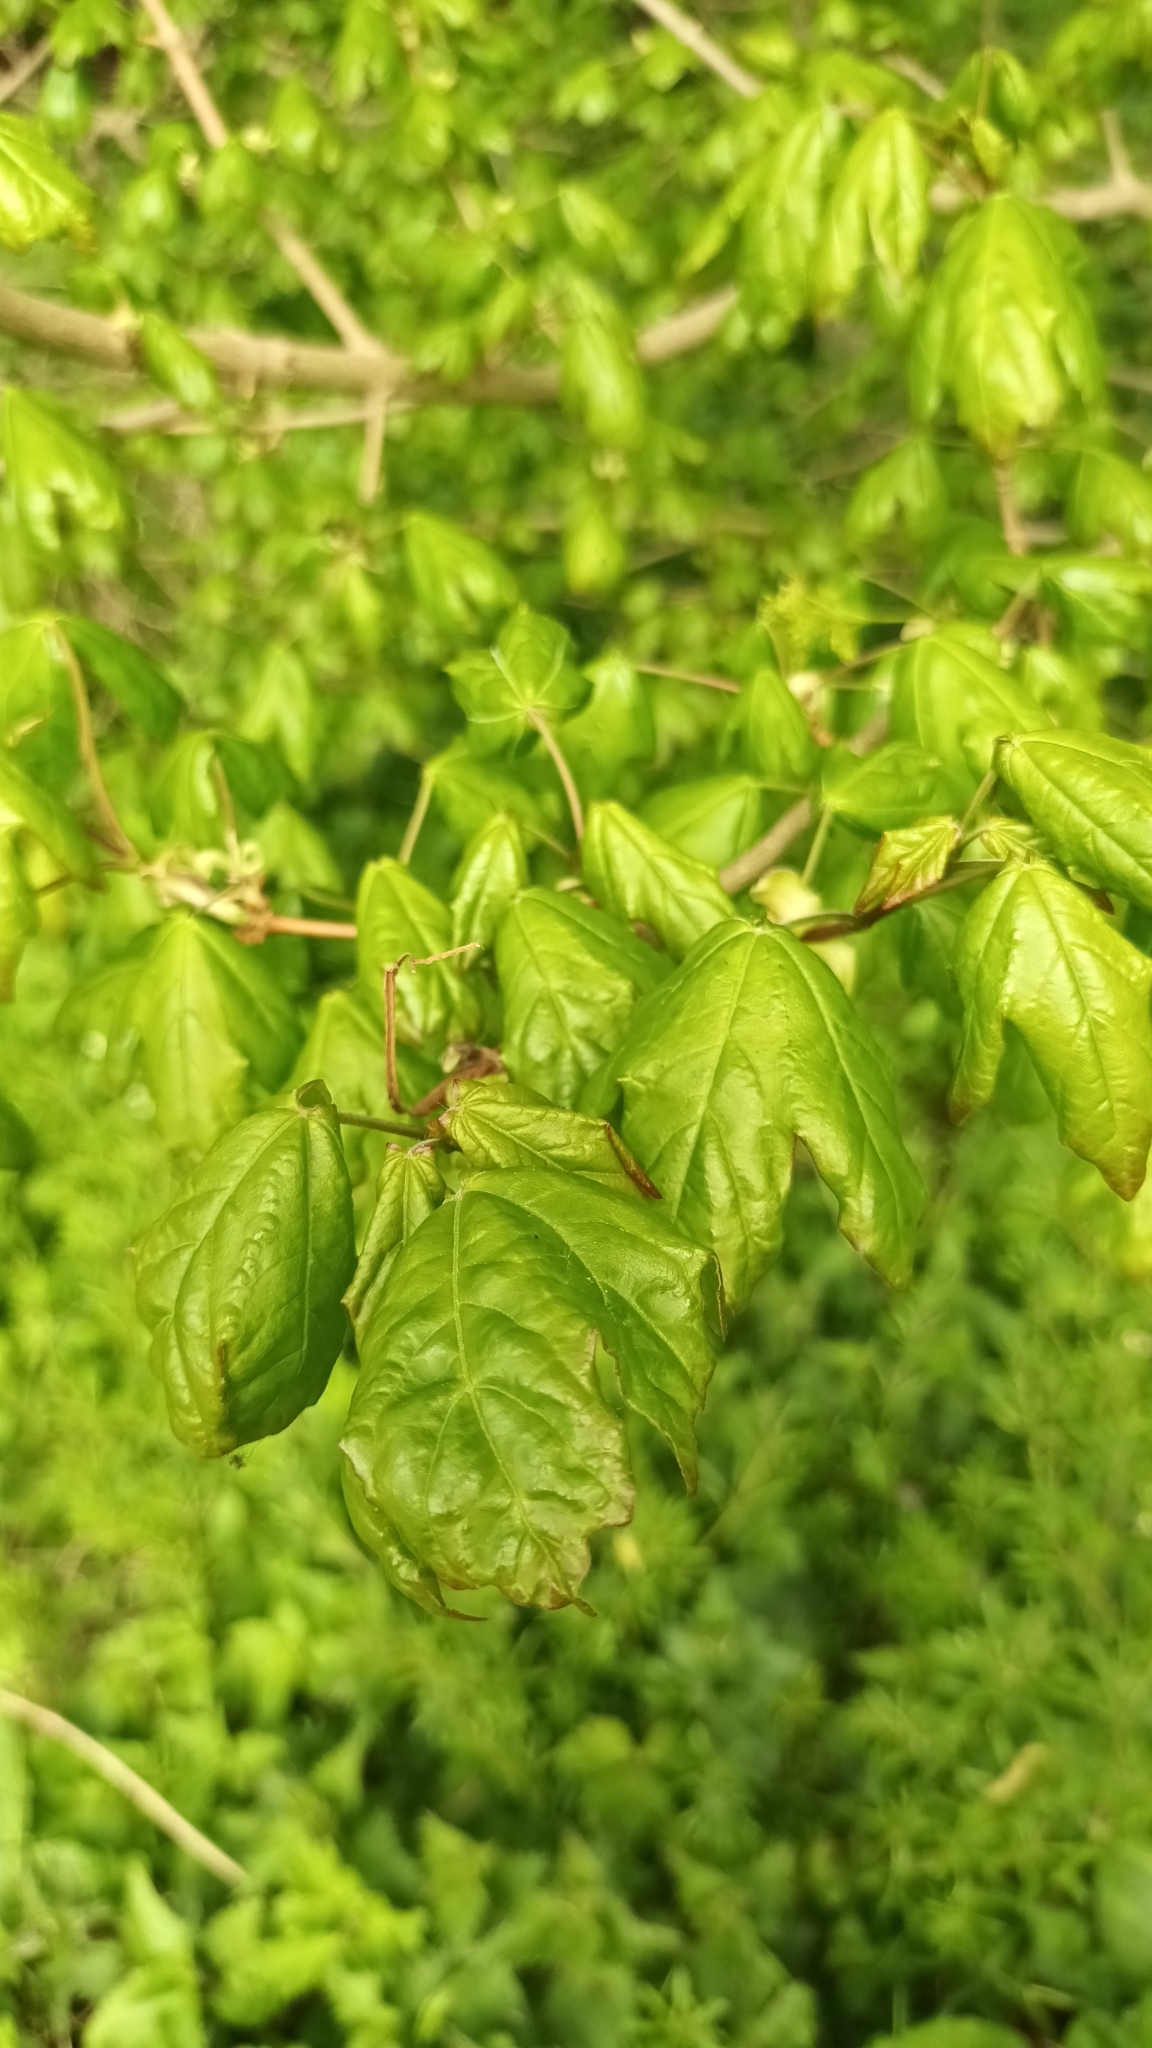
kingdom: Plantae
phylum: Tracheophyta
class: Magnoliopsida
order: Sapindales
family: Sapindaceae
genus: Acer
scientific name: Acer campestre
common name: Field maple
